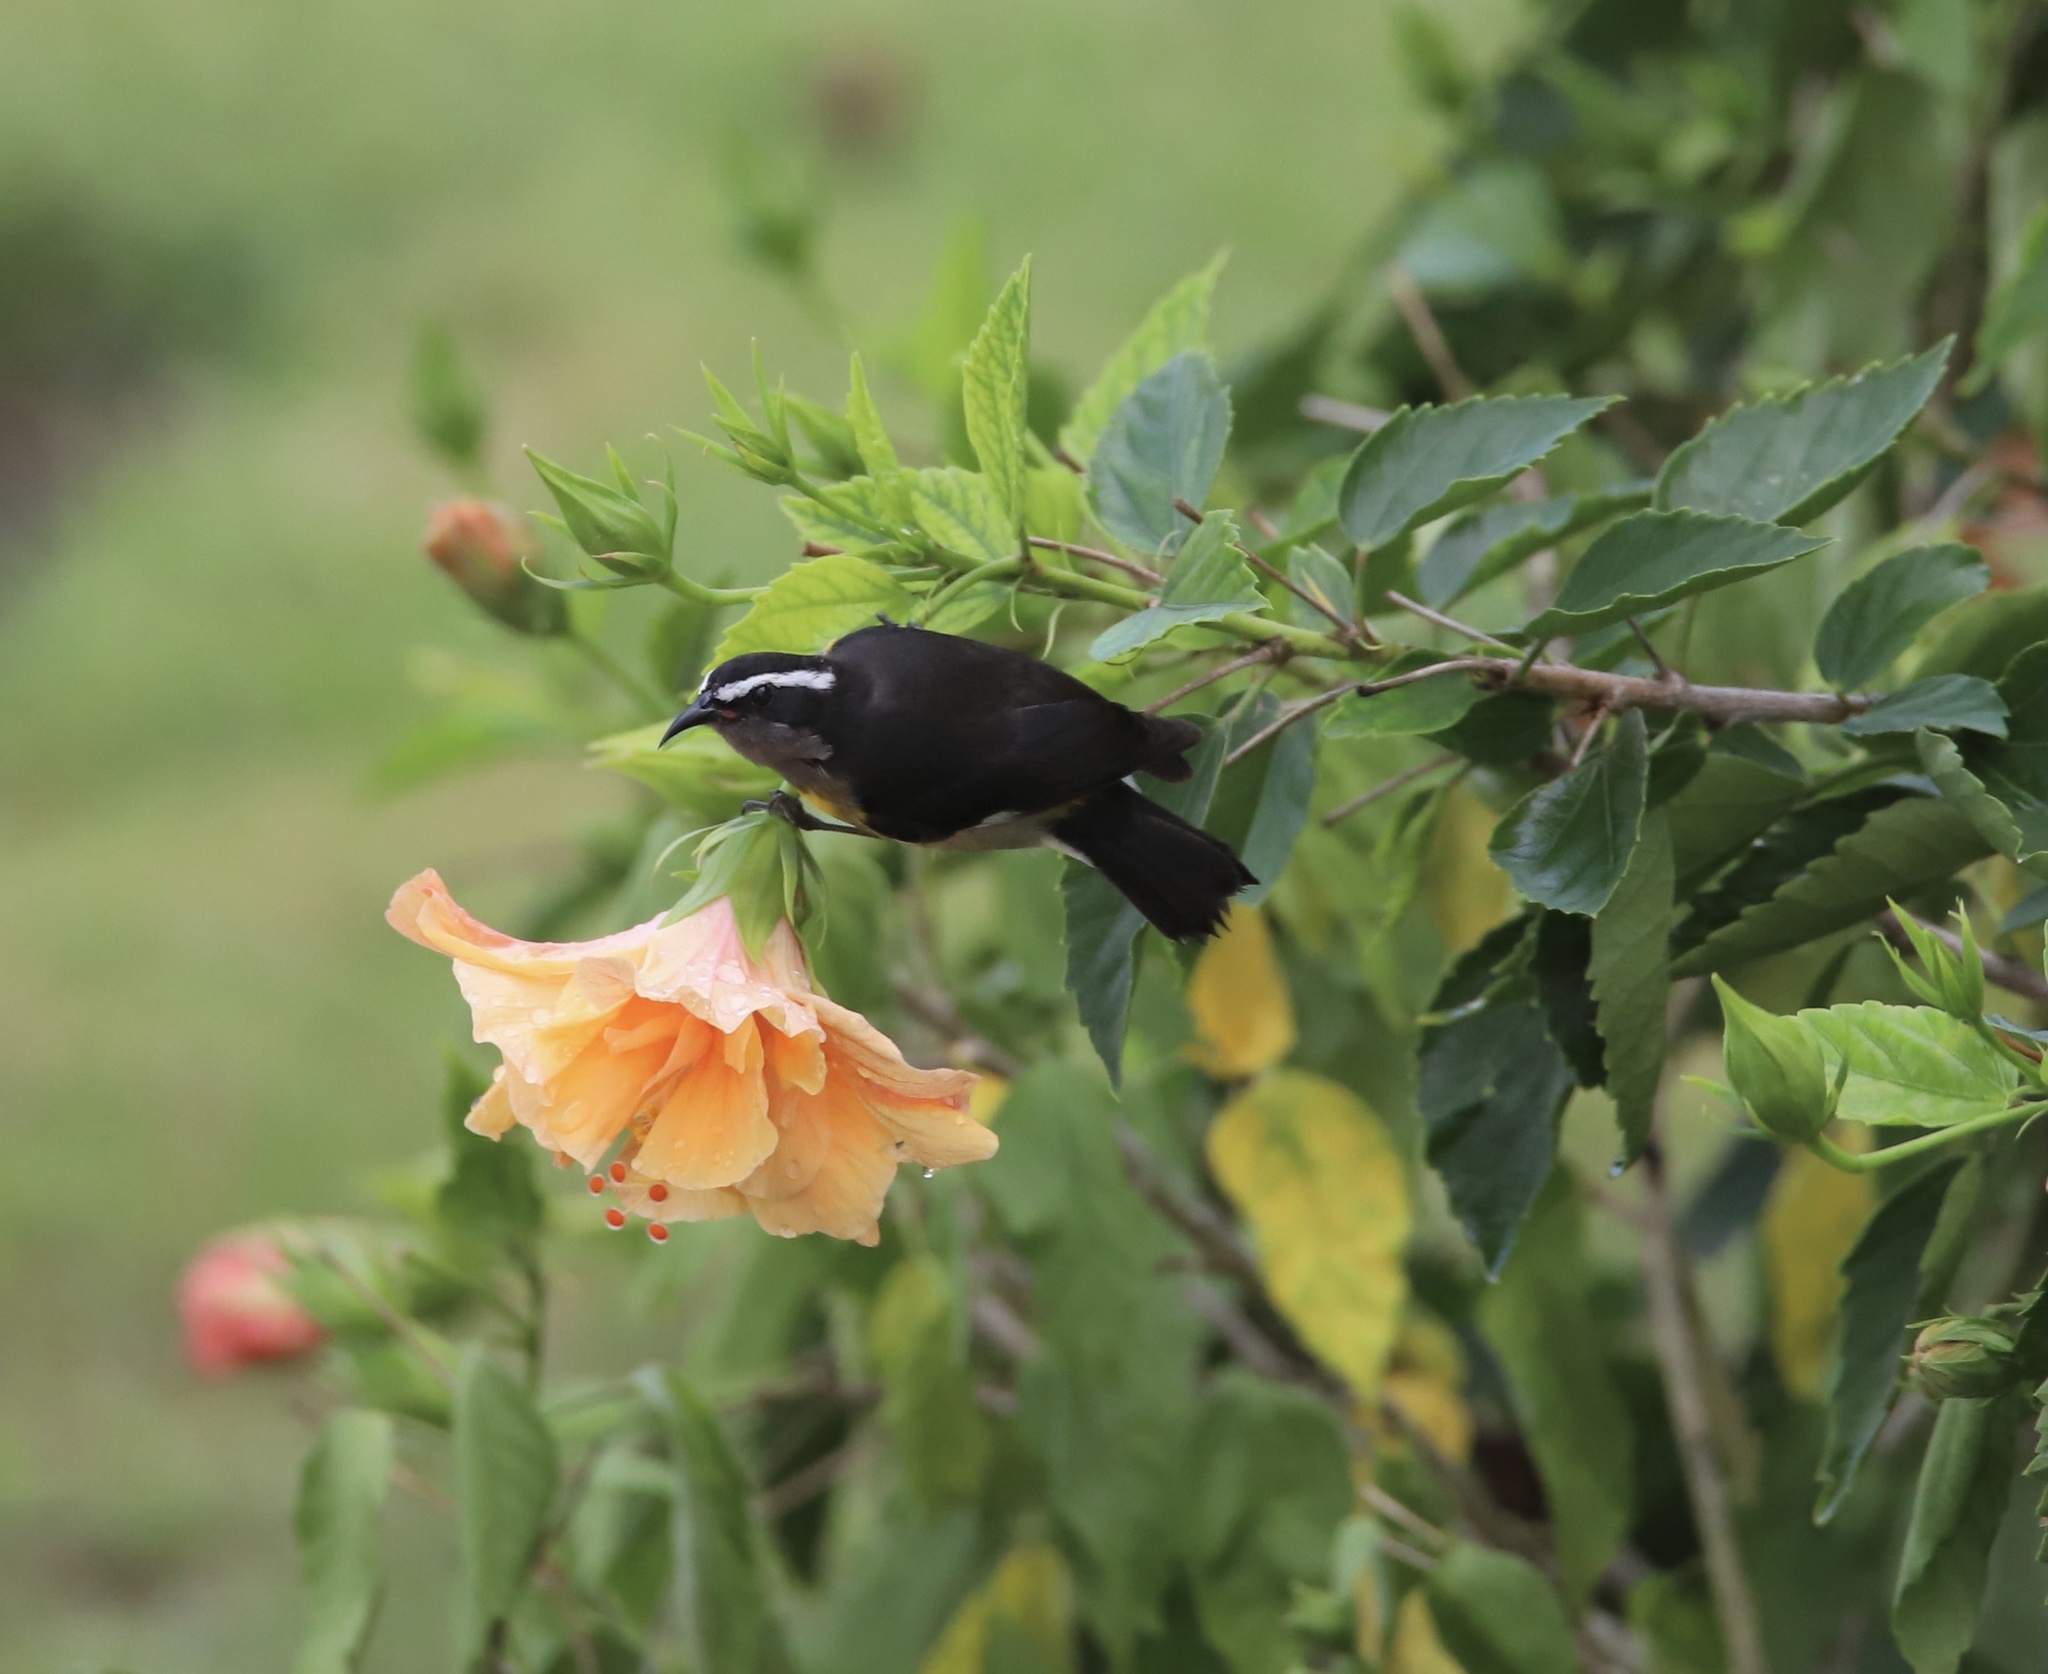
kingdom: Animalia
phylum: Chordata
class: Aves
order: Passeriformes
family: Thraupidae
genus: Coereba
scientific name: Coereba flaveola
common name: Bananaquit
